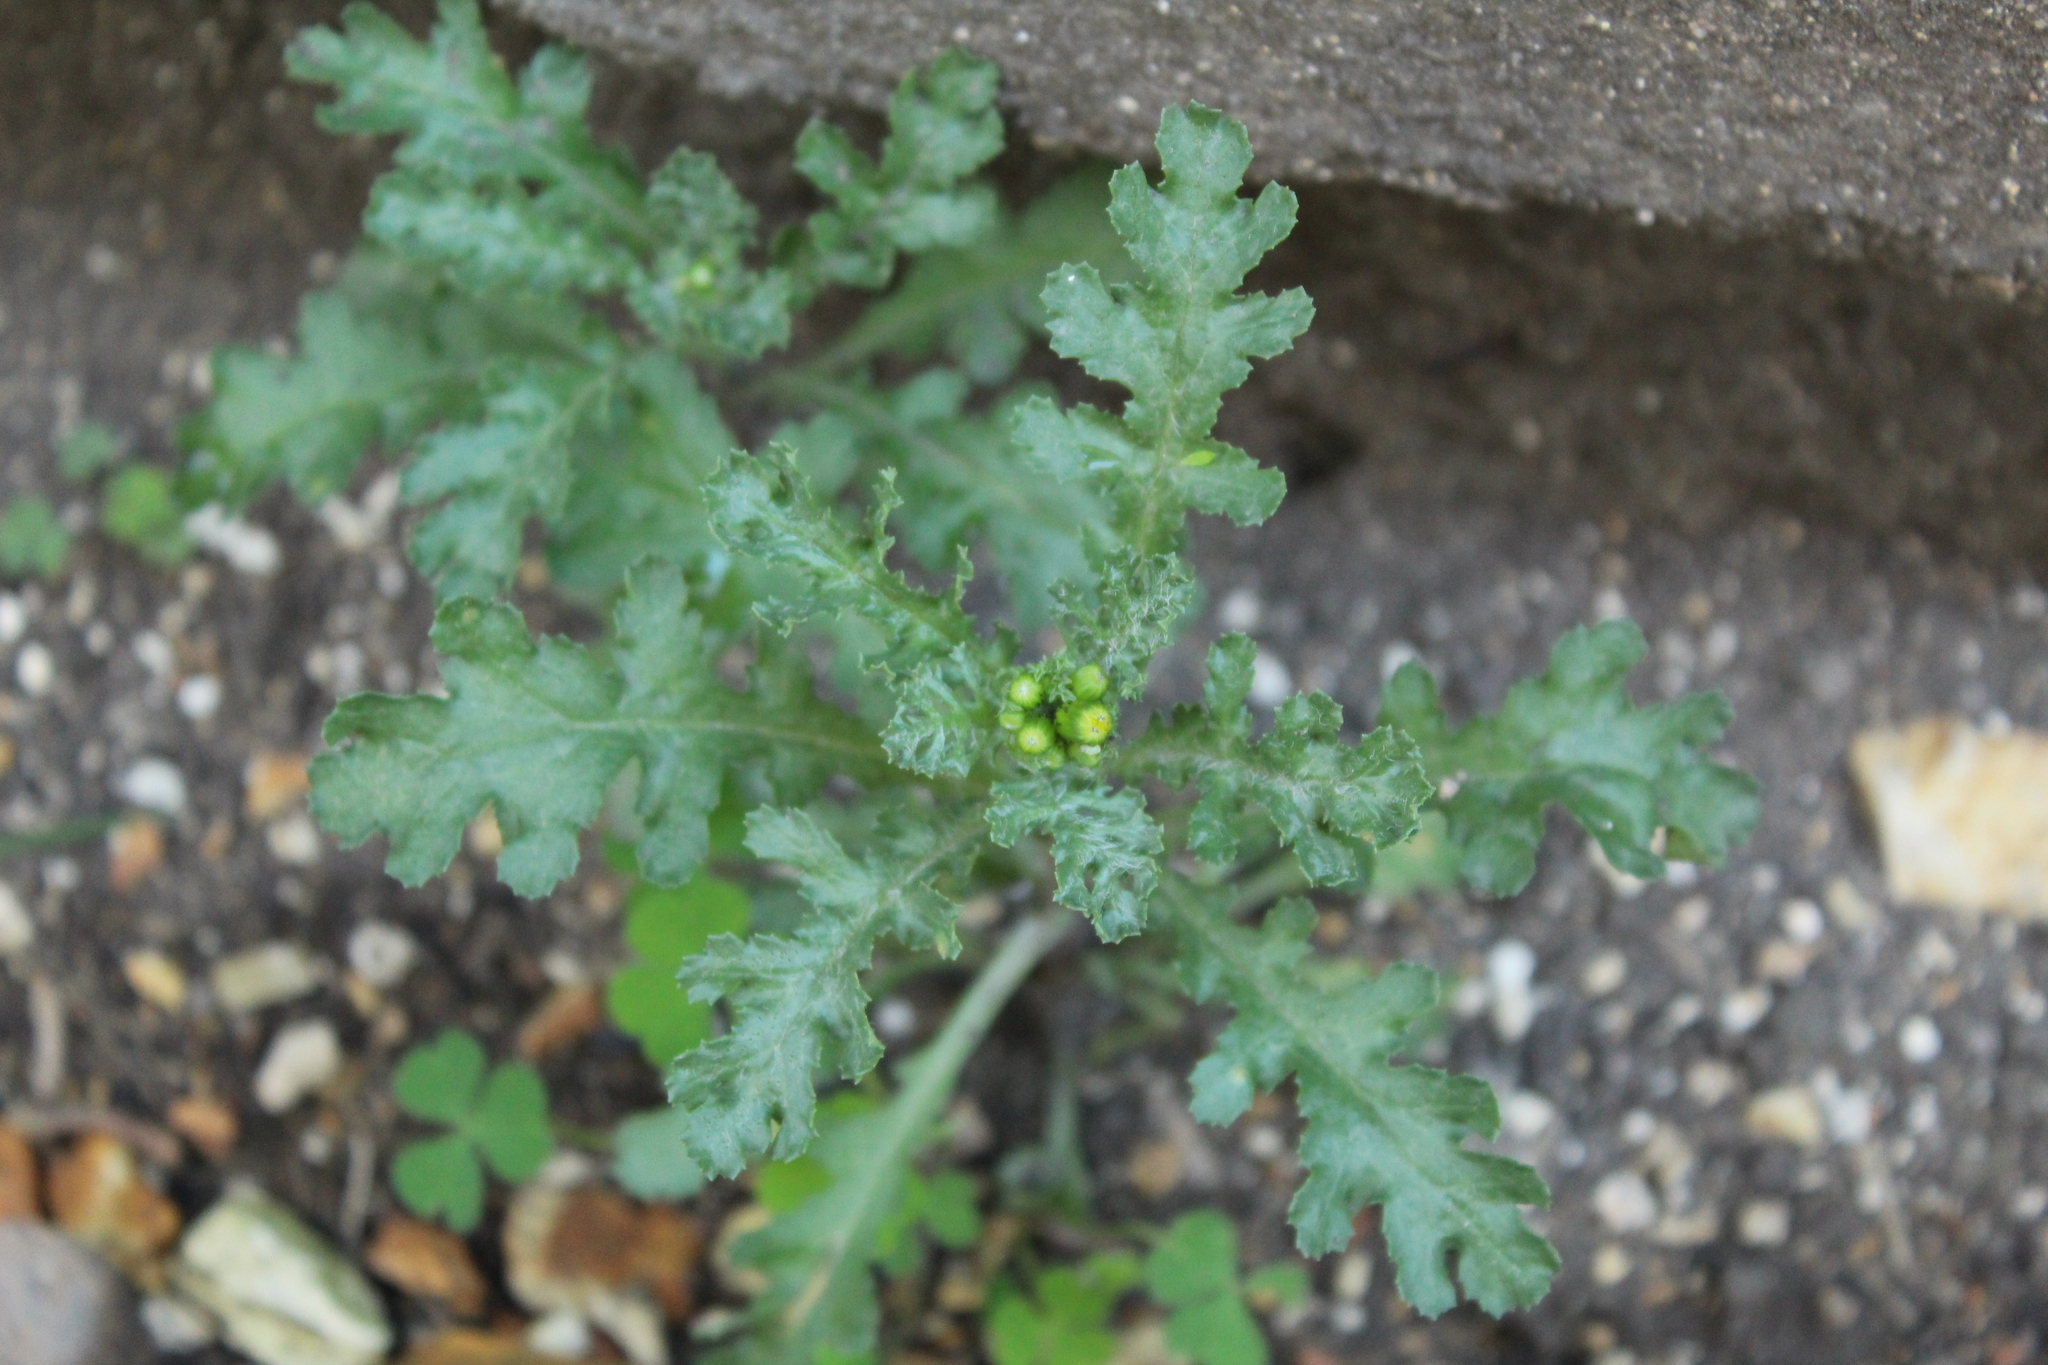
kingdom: Plantae
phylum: Tracheophyta
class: Magnoliopsida
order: Asterales
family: Asteraceae
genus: Senecio
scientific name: Senecio vulgaris
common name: Old-man-in-the-spring
